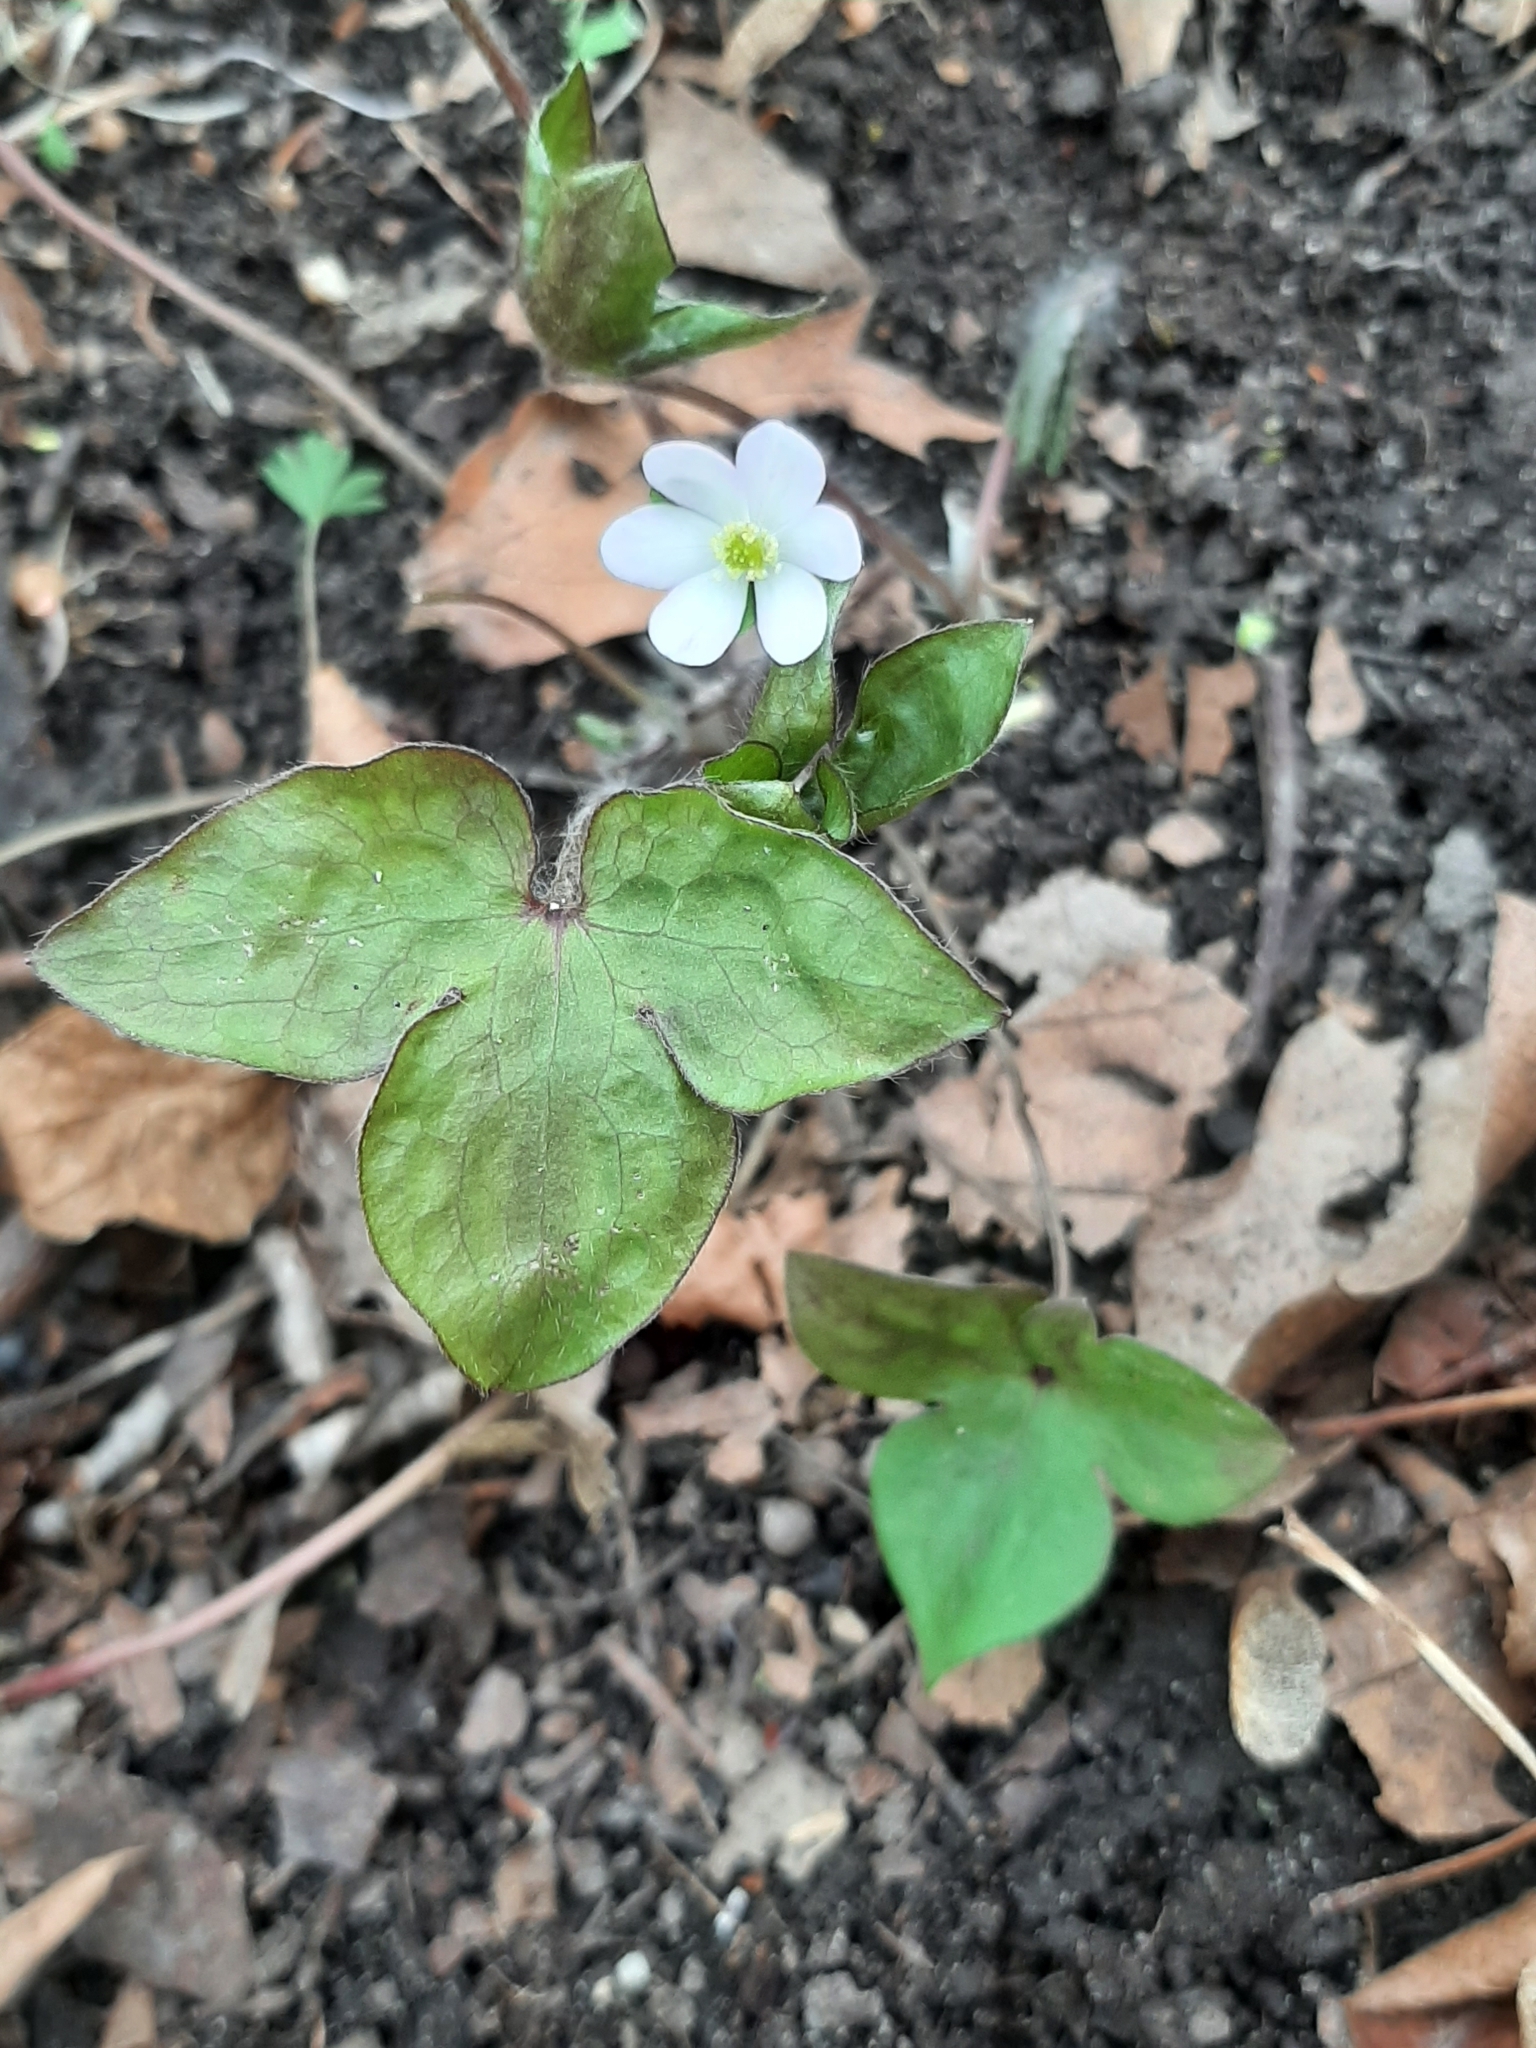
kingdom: Plantae
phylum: Tracheophyta
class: Magnoliopsida
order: Ranunculales
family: Ranunculaceae
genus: Hepatica
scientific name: Hepatica acutiloba
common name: Sharp-lobed hepatica
